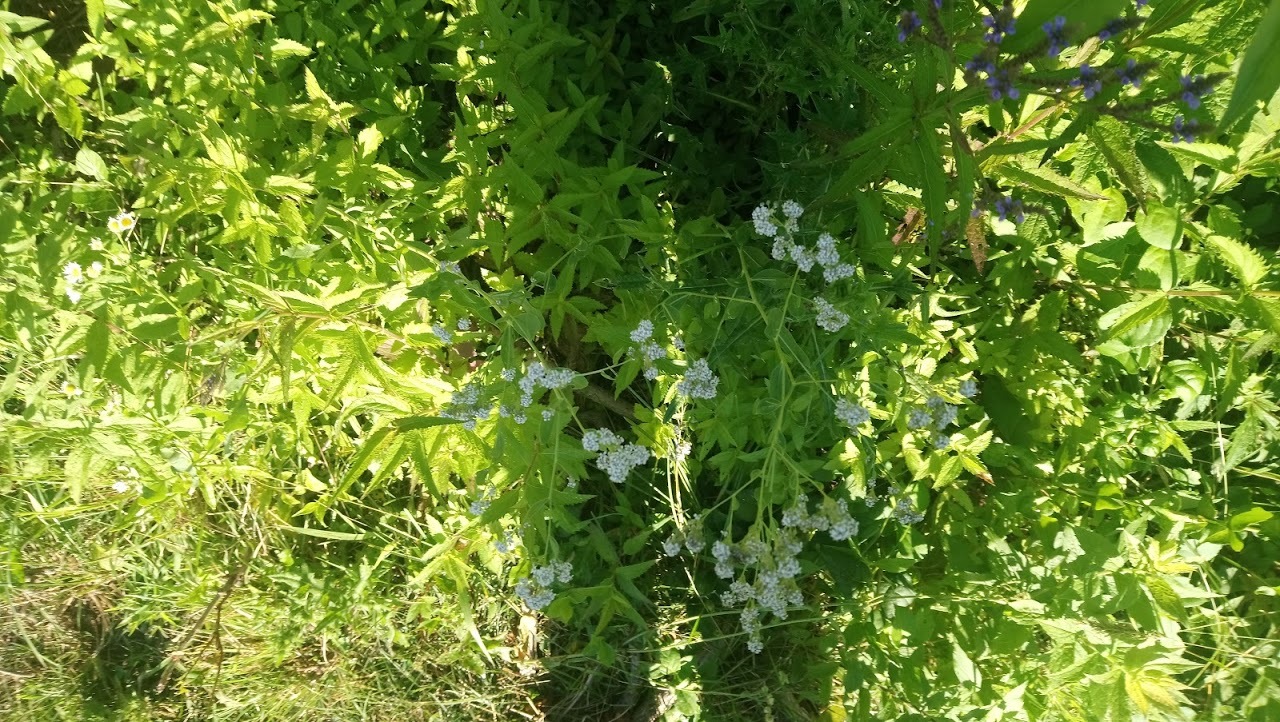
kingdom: Plantae
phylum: Tracheophyta
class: Magnoliopsida
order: Brassicales
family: Brassicaceae
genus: Lepidium
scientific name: Lepidium latifolium
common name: Dittander
